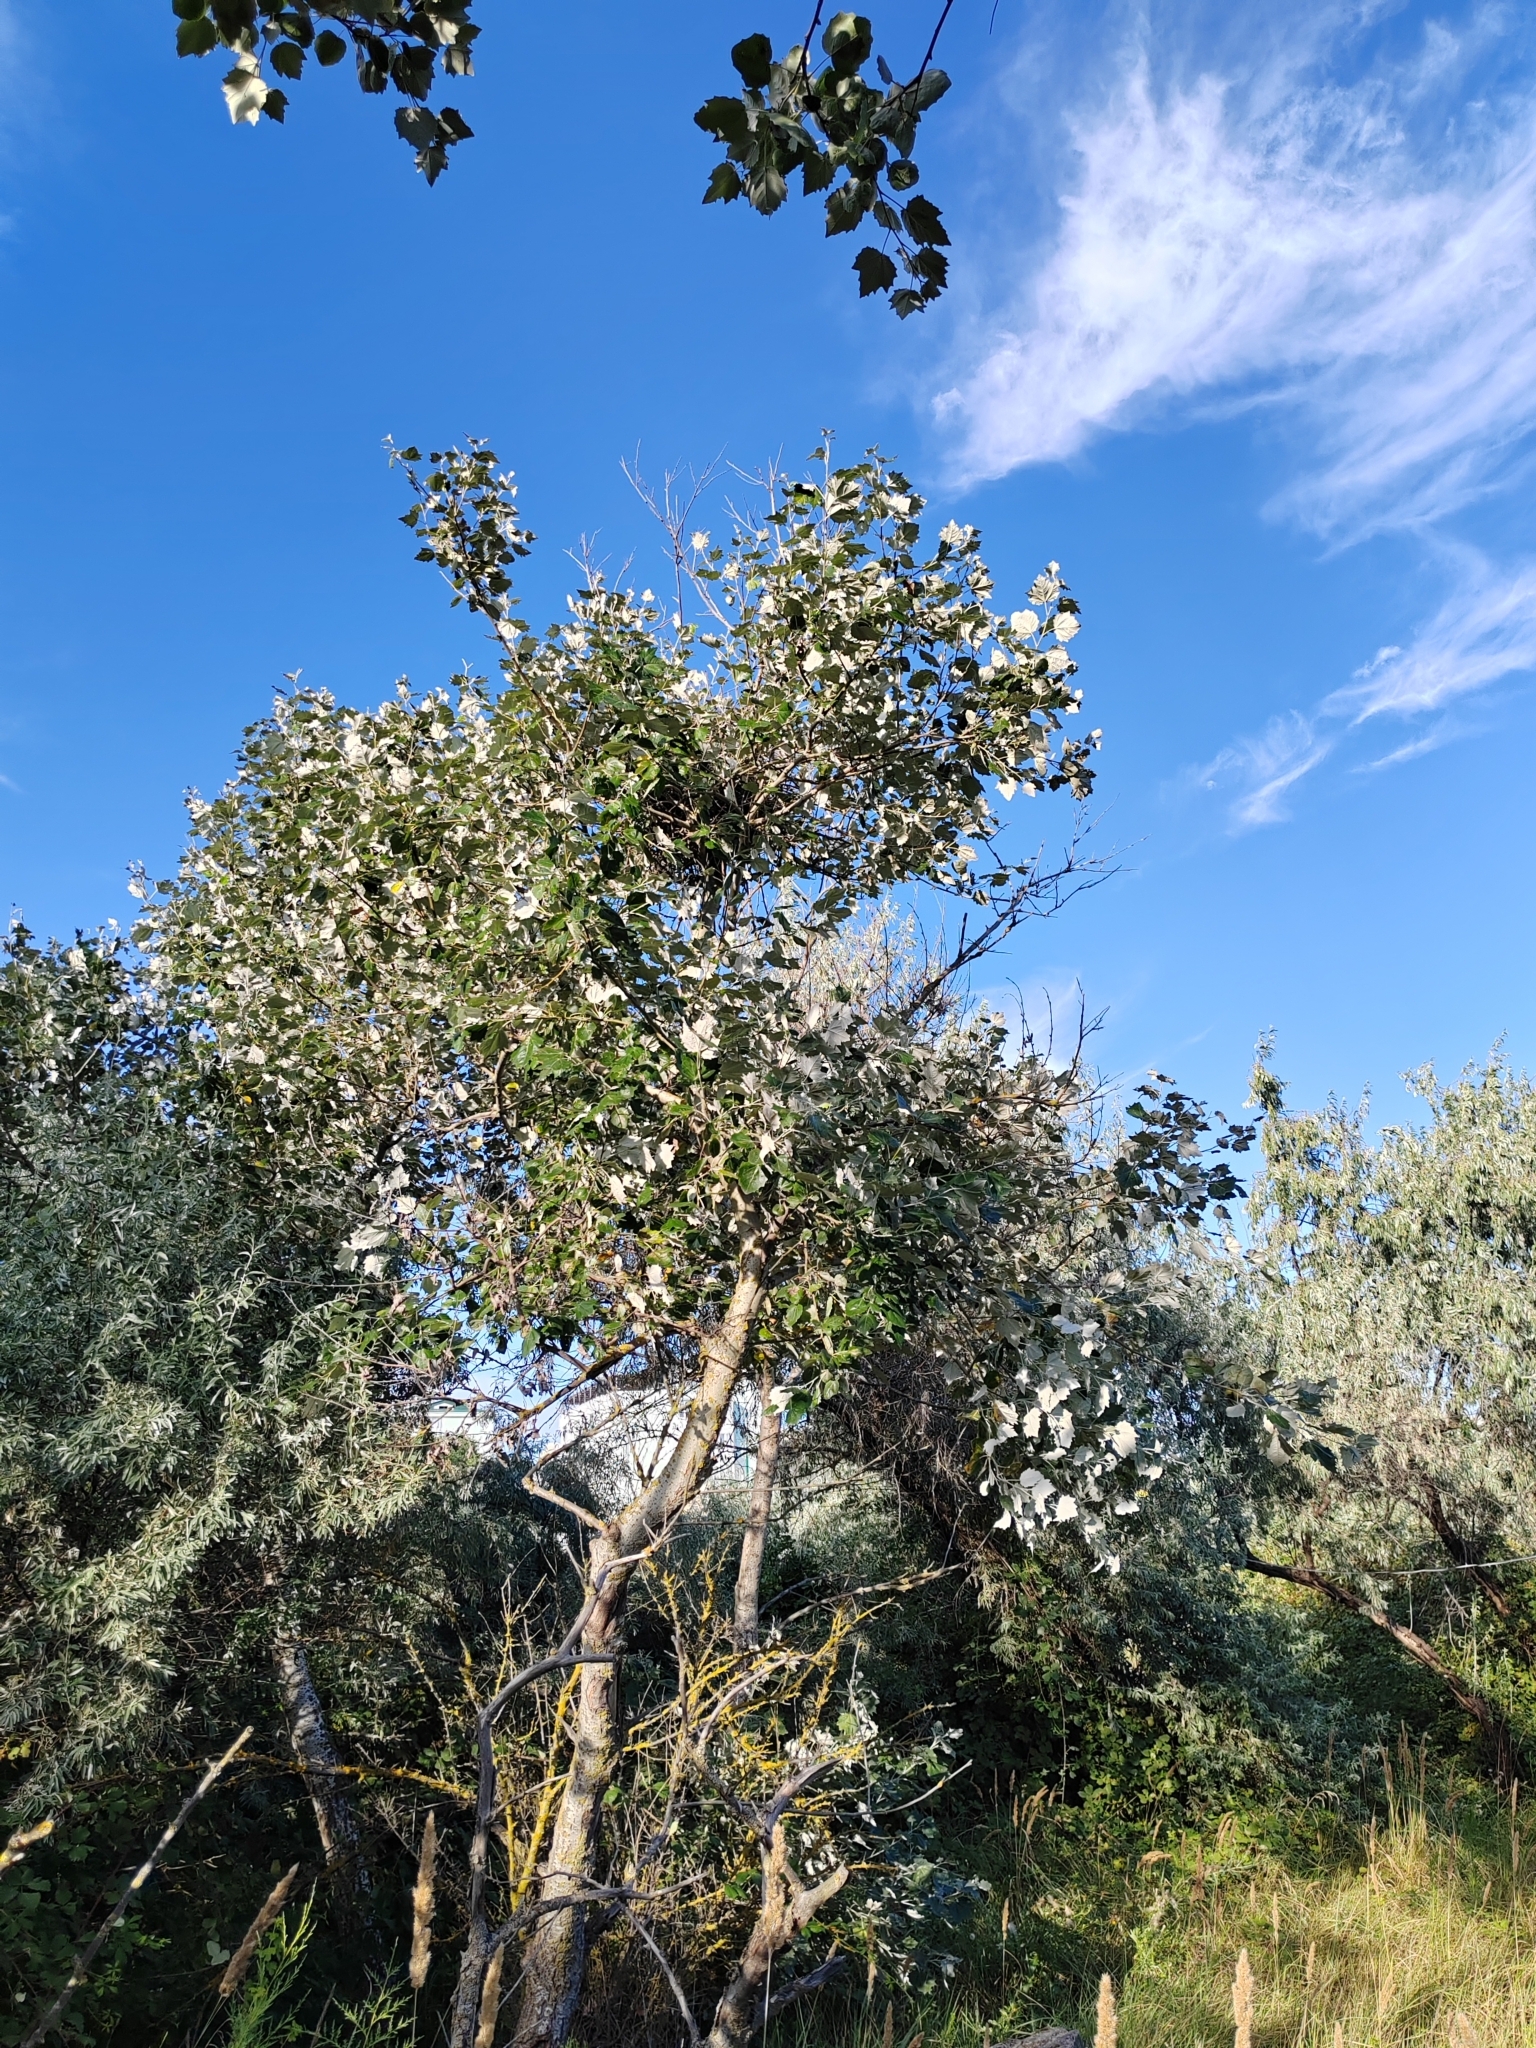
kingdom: Plantae
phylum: Tracheophyta
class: Magnoliopsida
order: Malpighiales
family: Salicaceae
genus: Populus
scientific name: Populus alba
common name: White poplar
